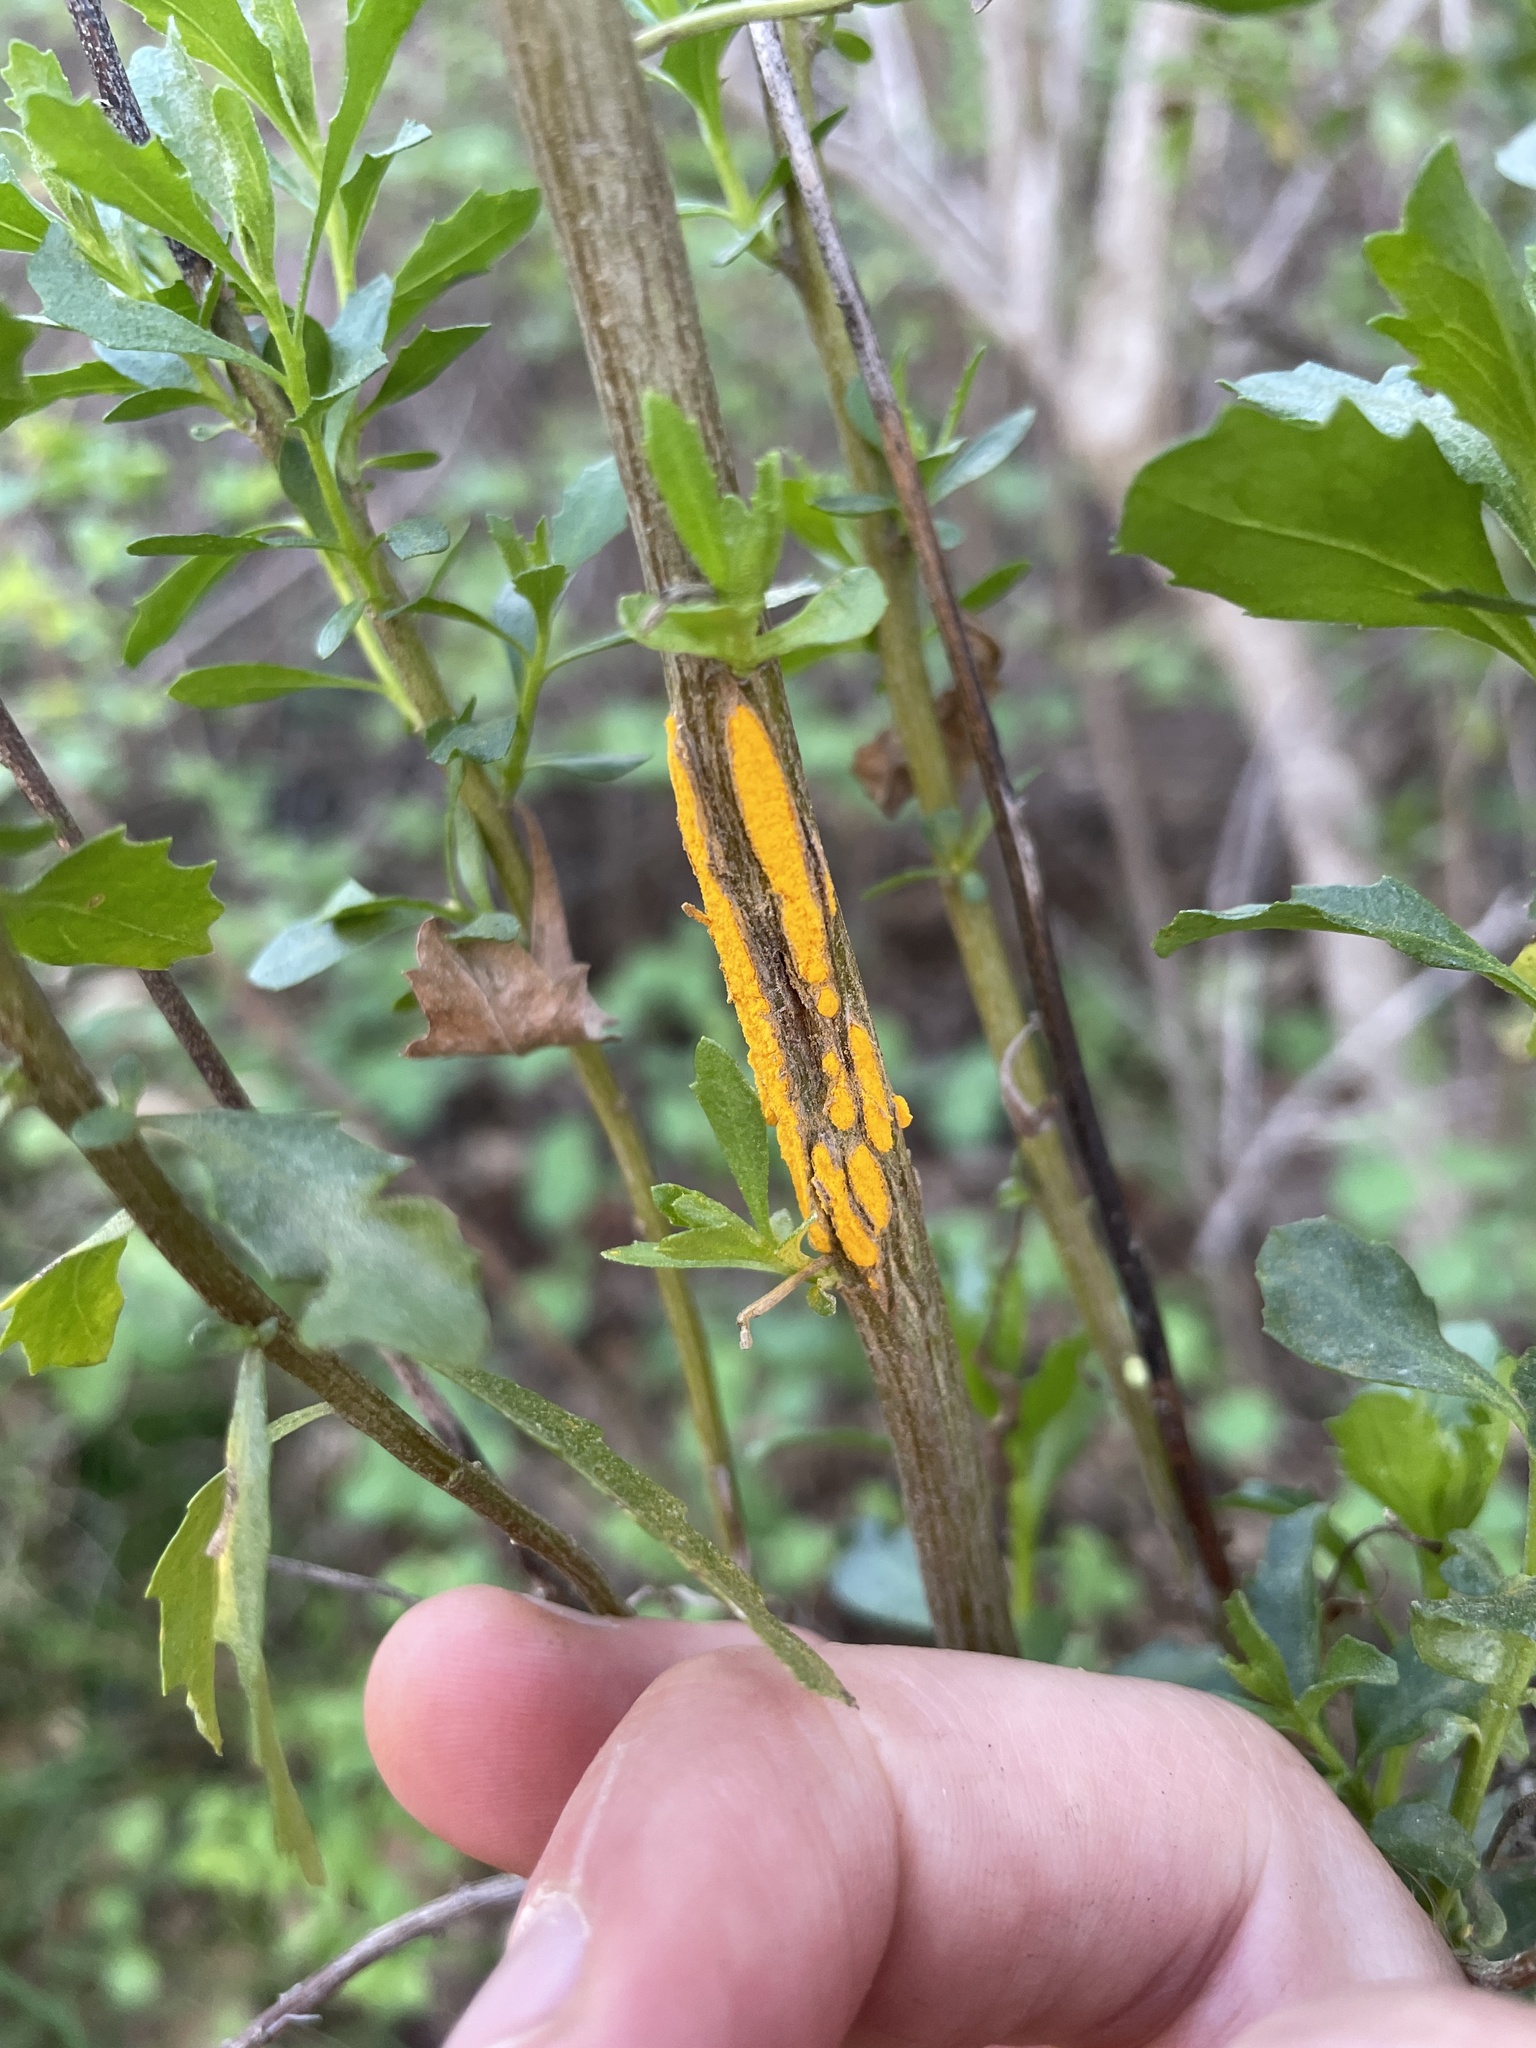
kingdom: Fungi
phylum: Basidiomycota
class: Pucciniomycetes
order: Pucciniales
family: Pucciniaceae
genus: Eriosporangium
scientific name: Eriosporangium evadens
